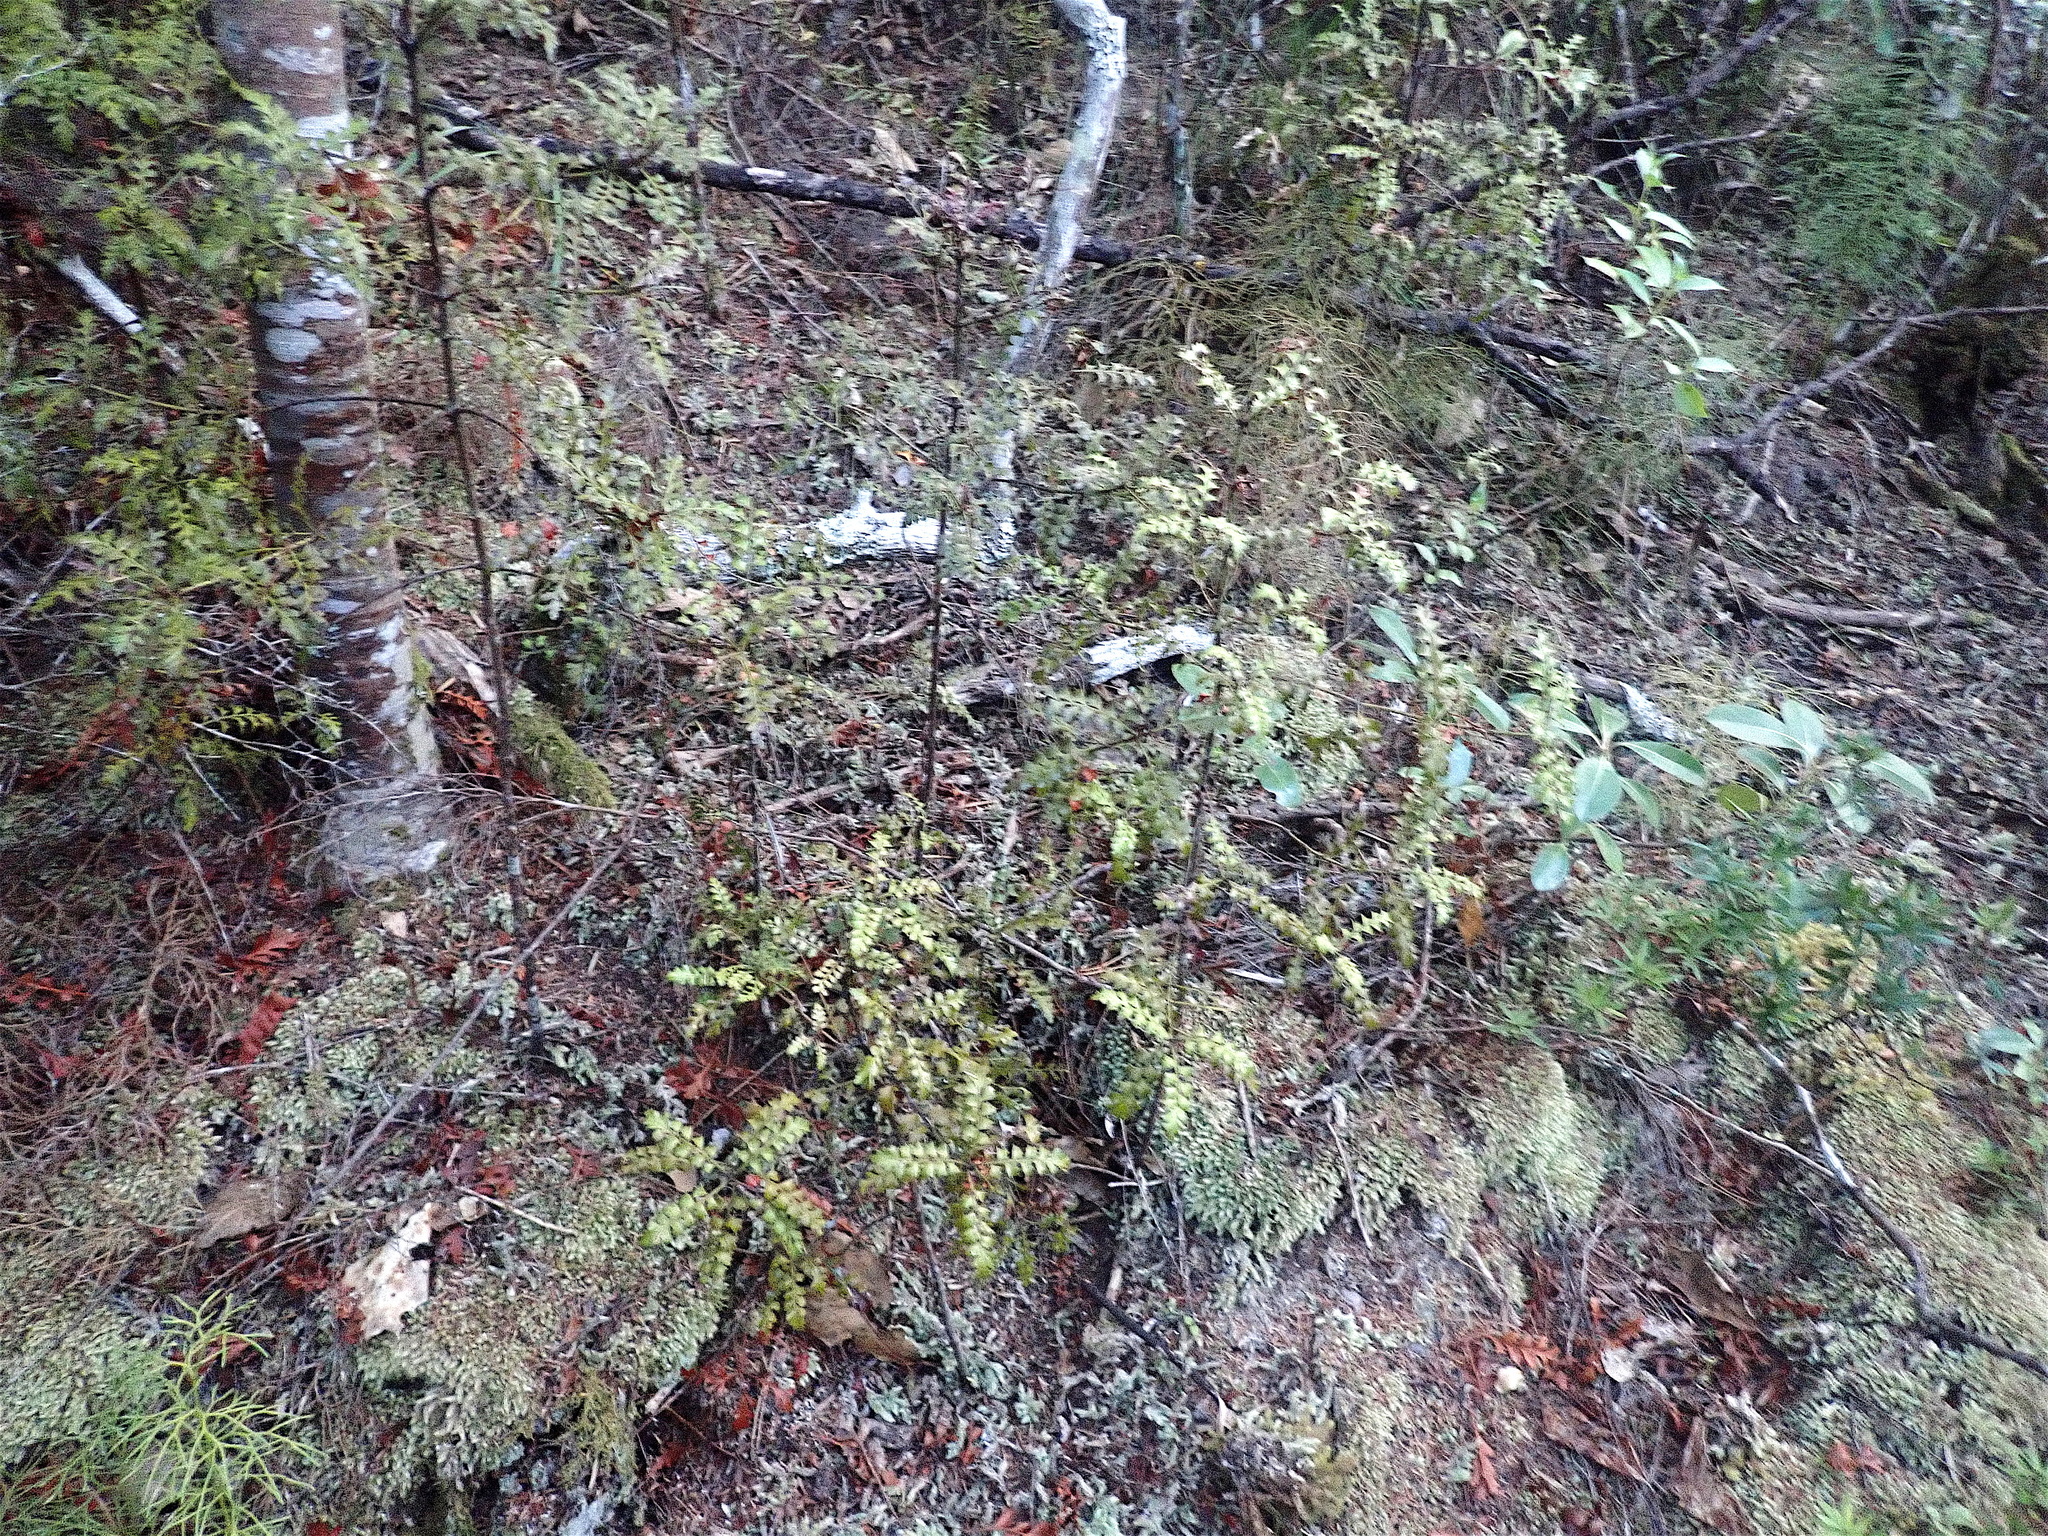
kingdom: Plantae
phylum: Tracheophyta
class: Pinopsida
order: Pinales
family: Phyllocladaceae
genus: Phyllocladus
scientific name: Phyllocladus trichomanoides
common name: Celery pine
